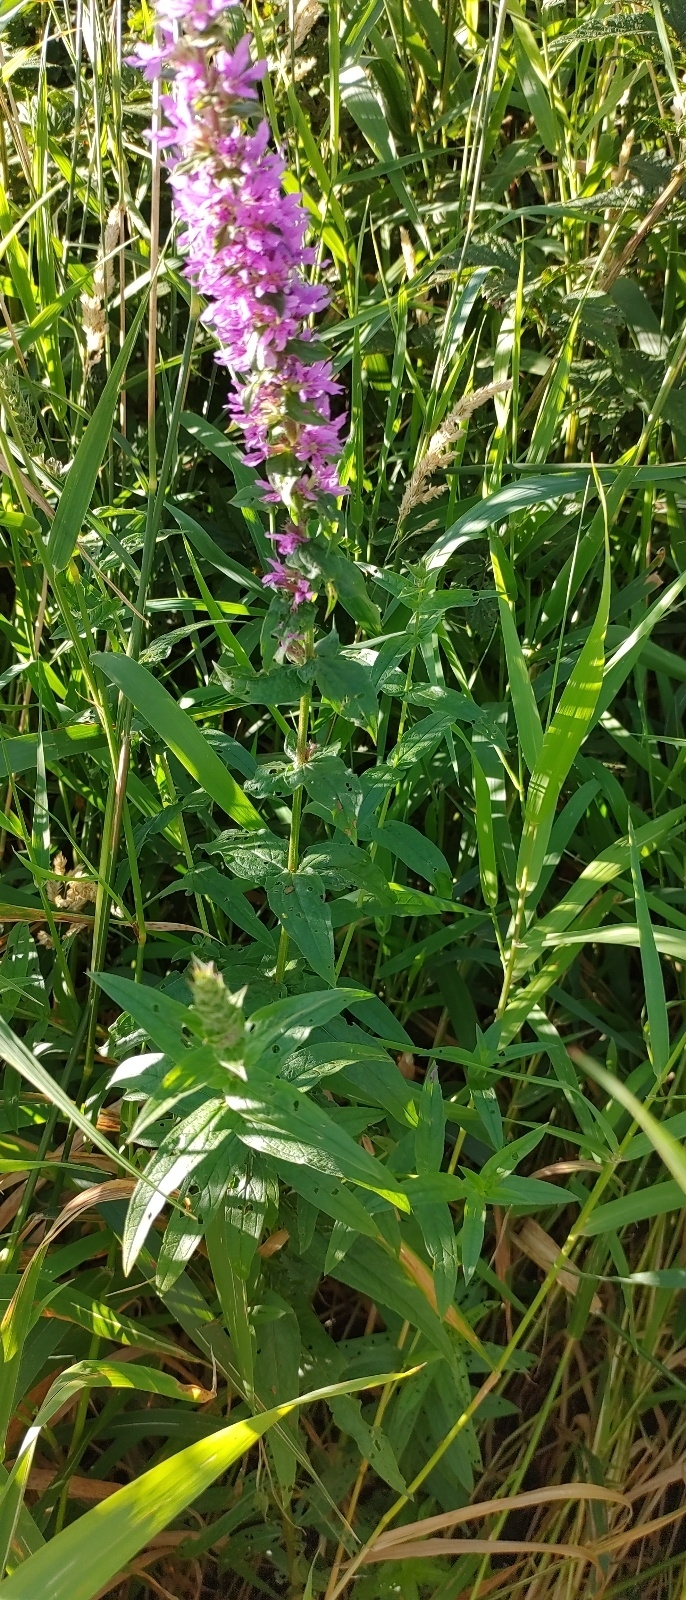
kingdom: Plantae
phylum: Tracheophyta
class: Magnoliopsida
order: Myrtales
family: Lythraceae
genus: Lythrum
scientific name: Lythrum salicaria
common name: Purple loosestrife
